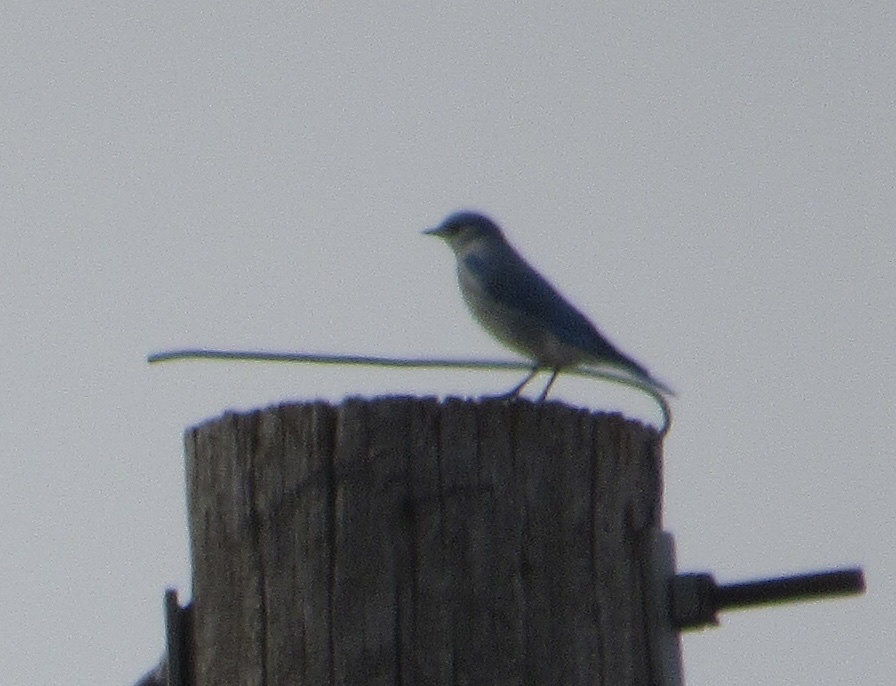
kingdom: Animalia
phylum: Chordata
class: Aves
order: Passeriformes
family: Turdidae
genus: Sialia
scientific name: Sialia currucoides
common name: Mountain bluebird
